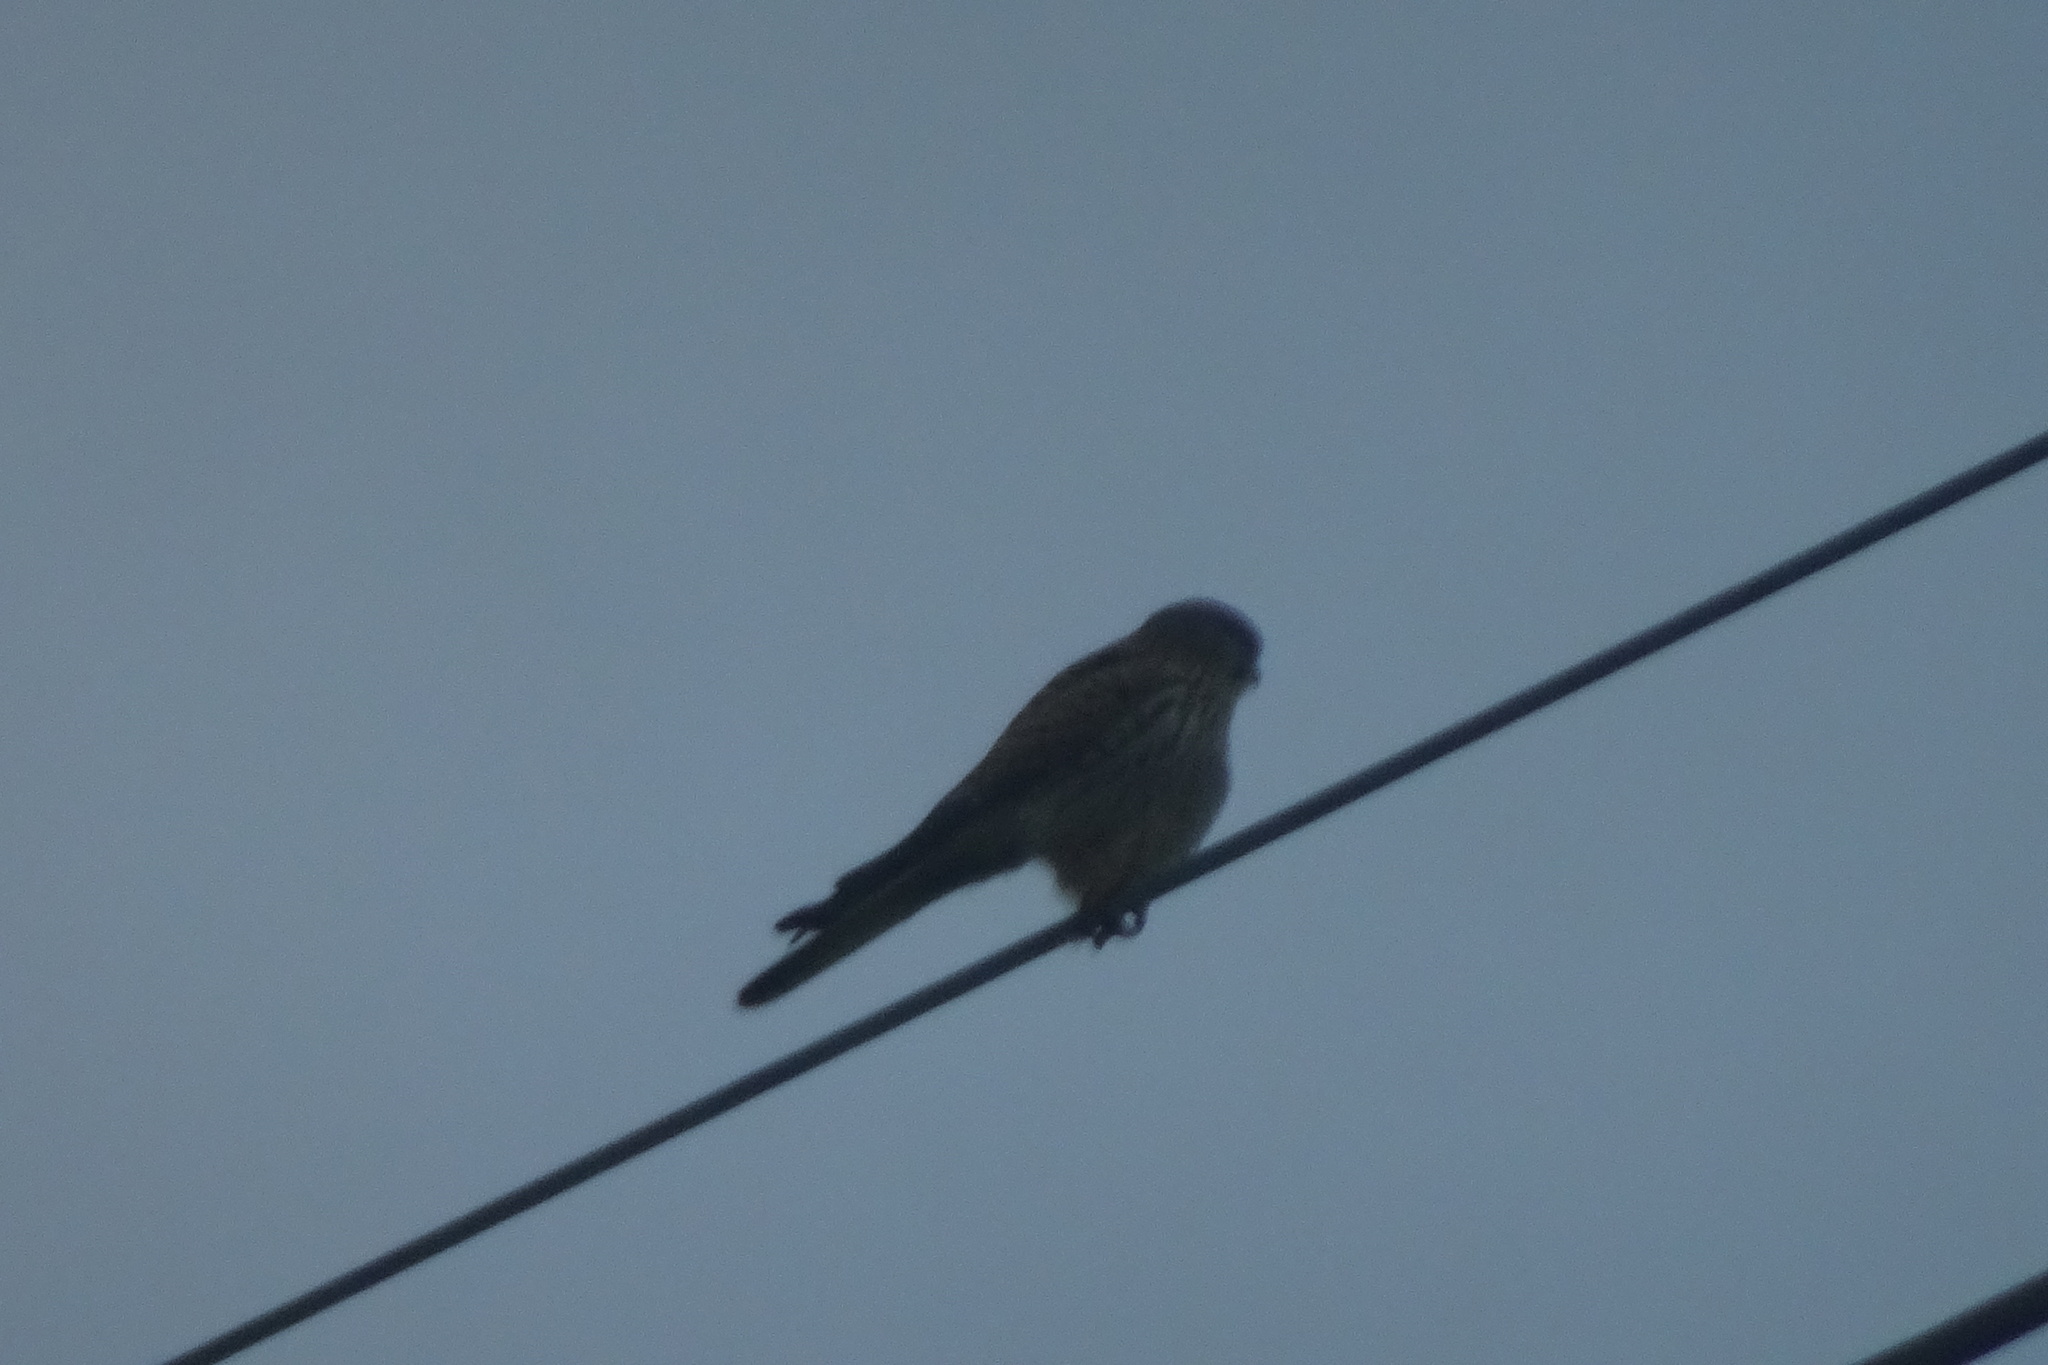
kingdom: Animalia
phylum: Chordata
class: Aves
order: Falconiformes
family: Falconidae
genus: Falco
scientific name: Falco tinnunculus
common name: Common kestrel
